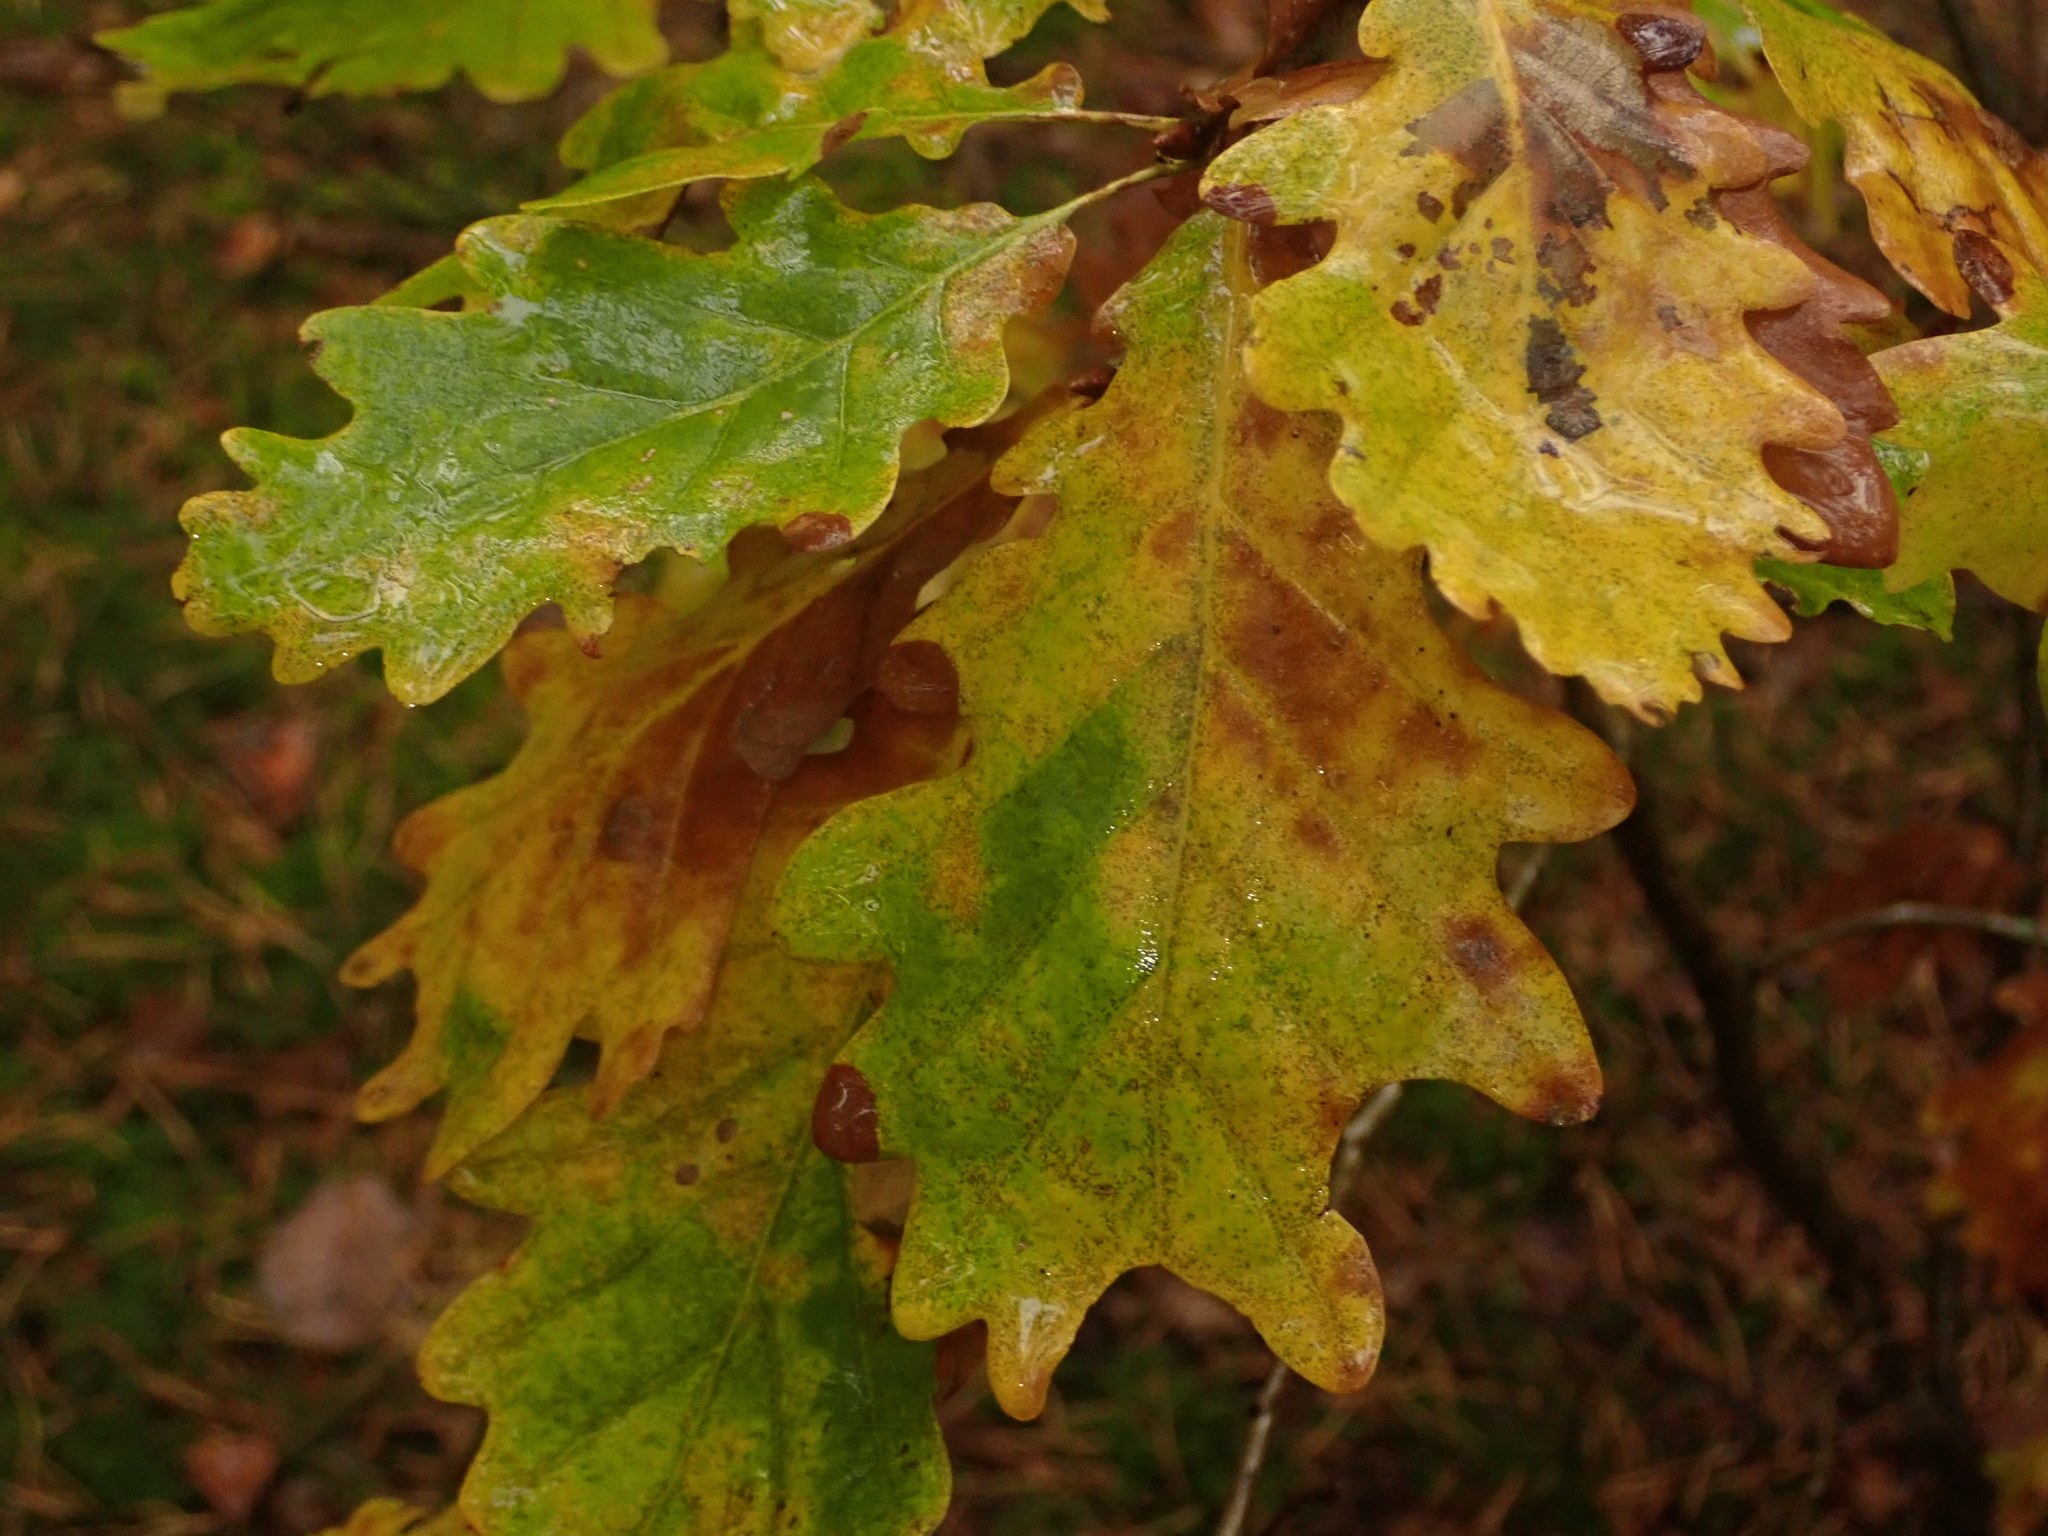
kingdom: Plantae
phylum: Tracheophyta
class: Magnoliopsida
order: Fagales
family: Fagaceae
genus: Quercus
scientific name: Quercus robur
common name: Pedunculate oak
